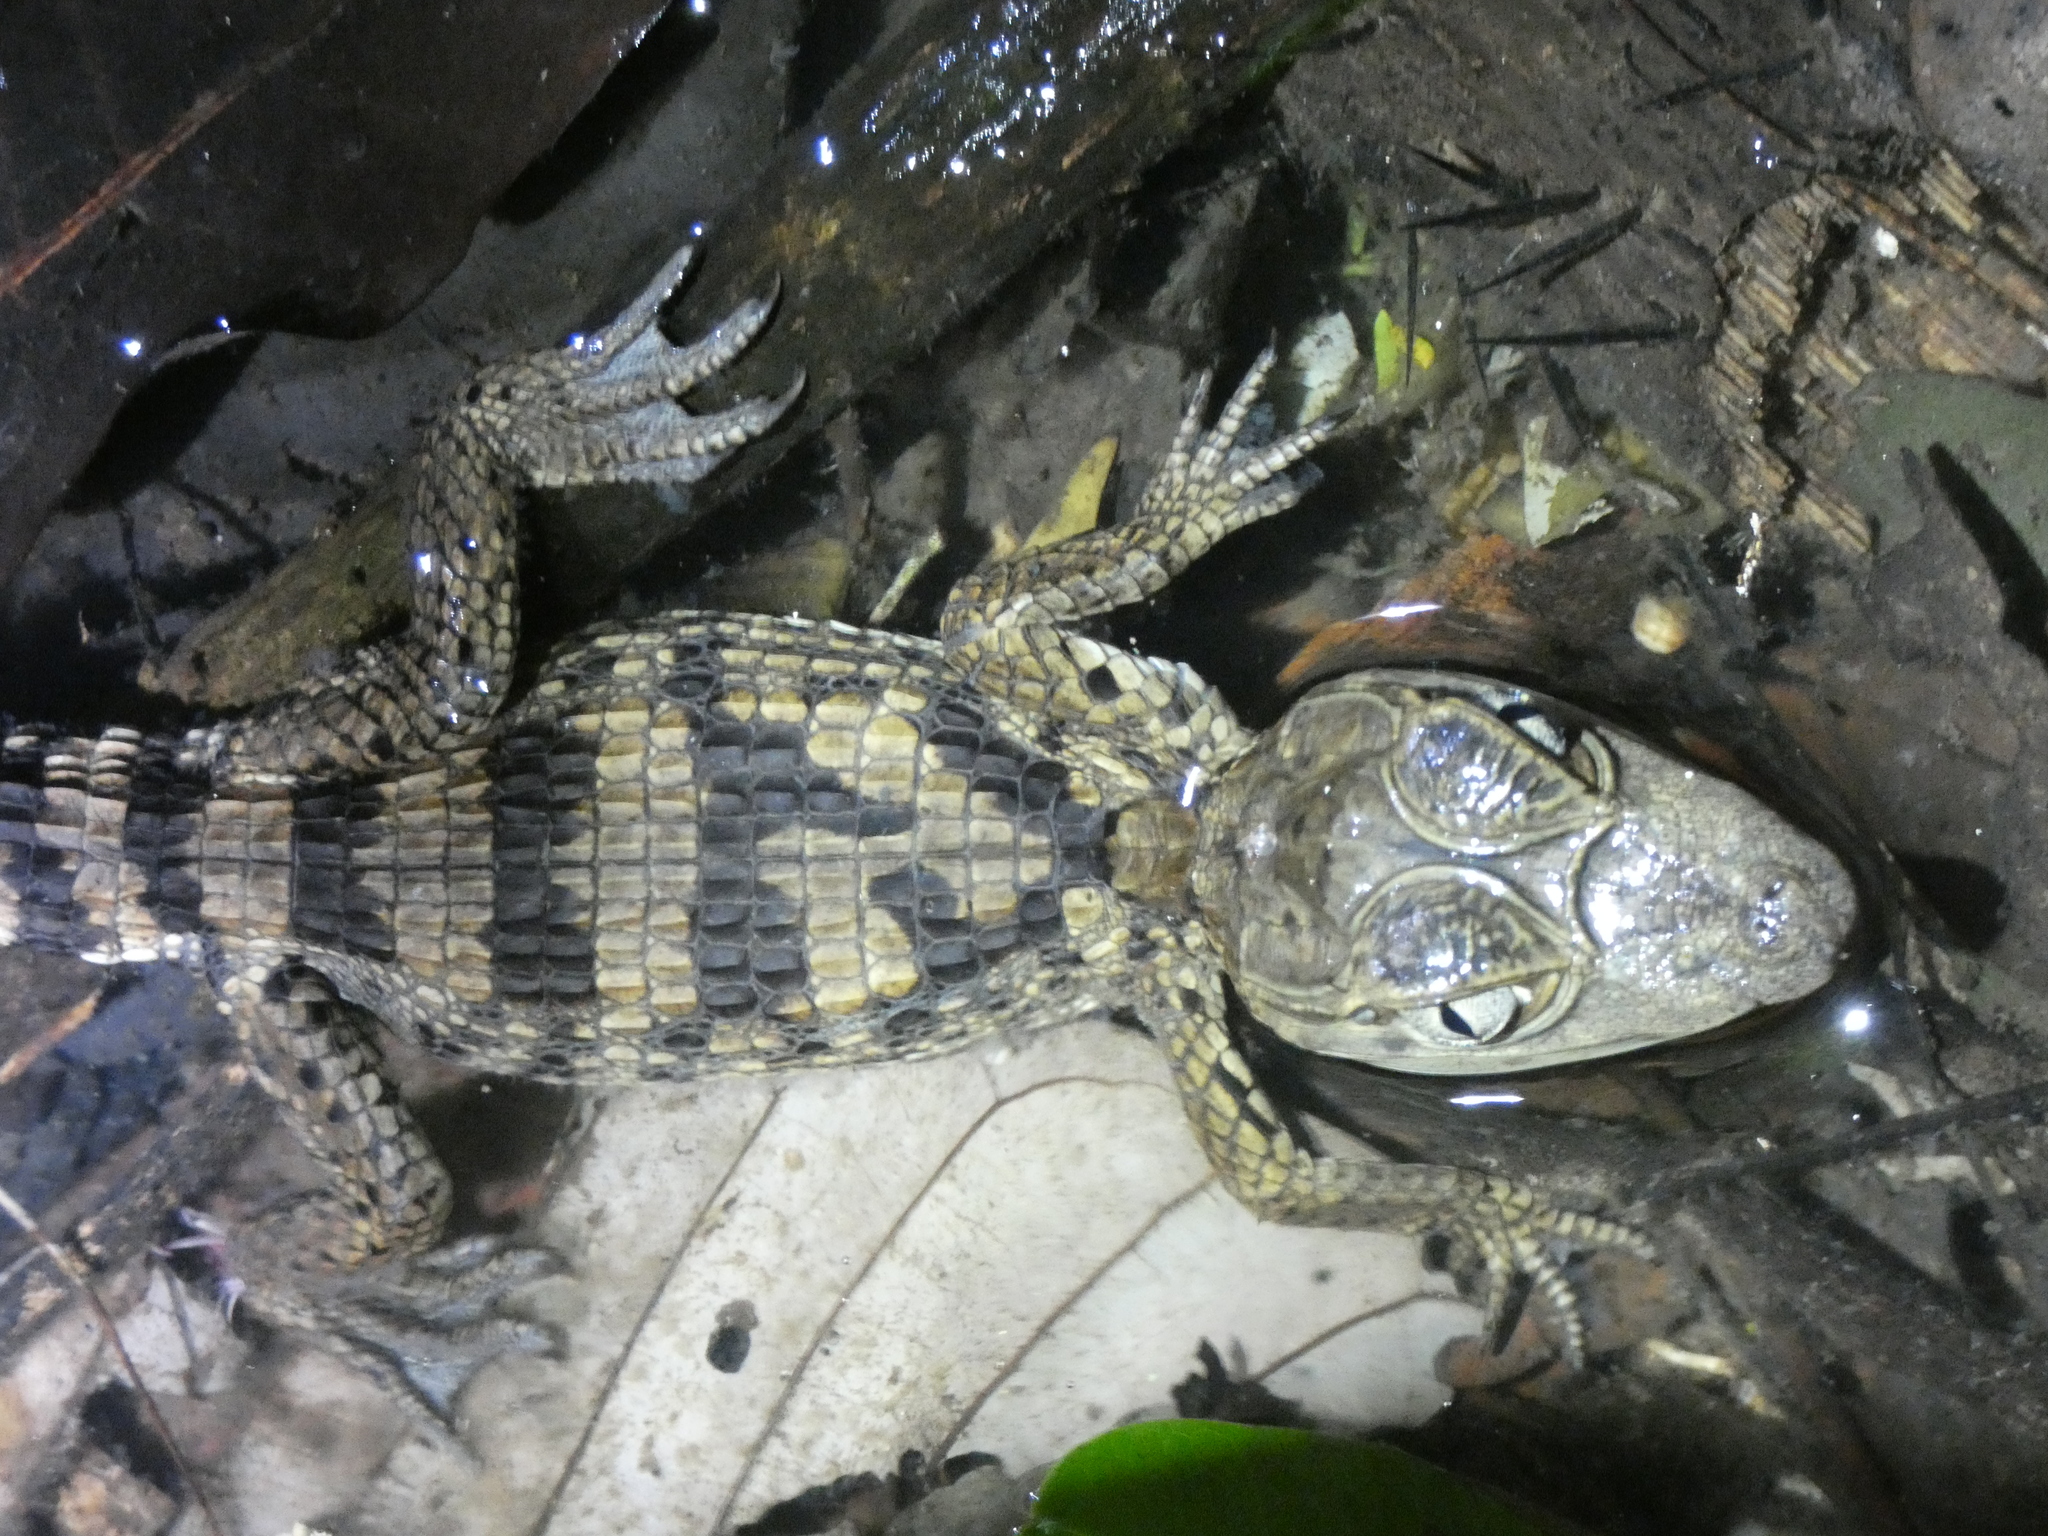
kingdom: Animalia
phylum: Chordata
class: Crocodylia
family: Alligatoridae
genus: Caiman
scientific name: Caiman crocodilus
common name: Common caiman
